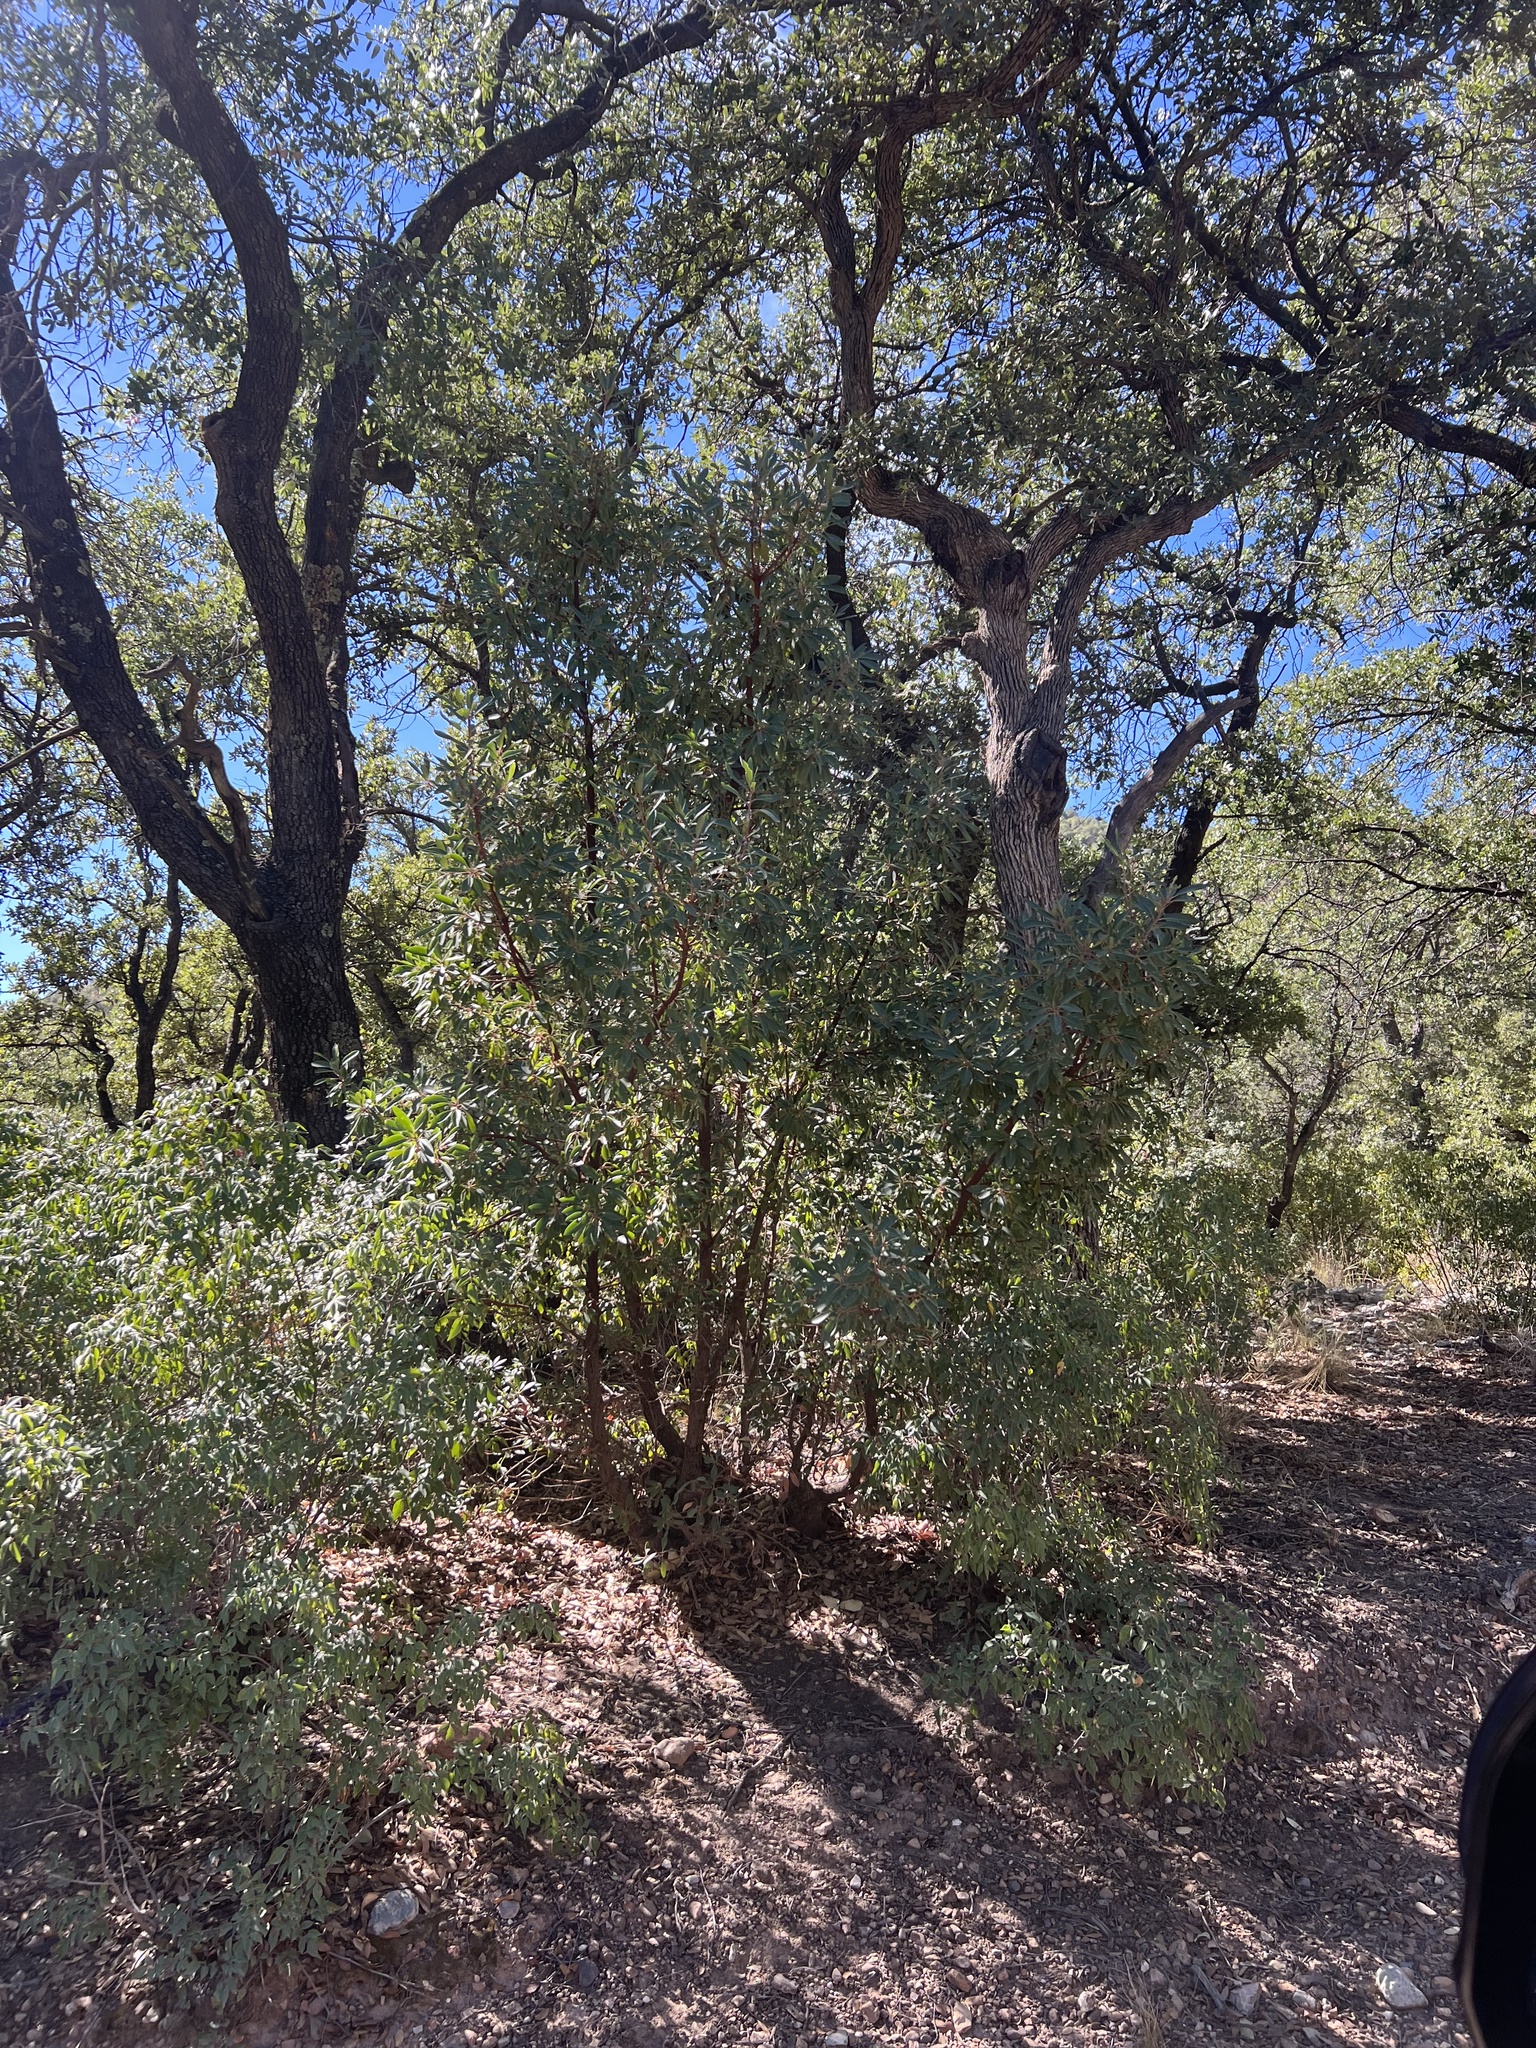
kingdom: Plantae
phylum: Tracheophyta
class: Magnoliopsida
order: Ericales
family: Ericaceae
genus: Arbutus
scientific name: Arbutus arizonica
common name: Arizona madrone
